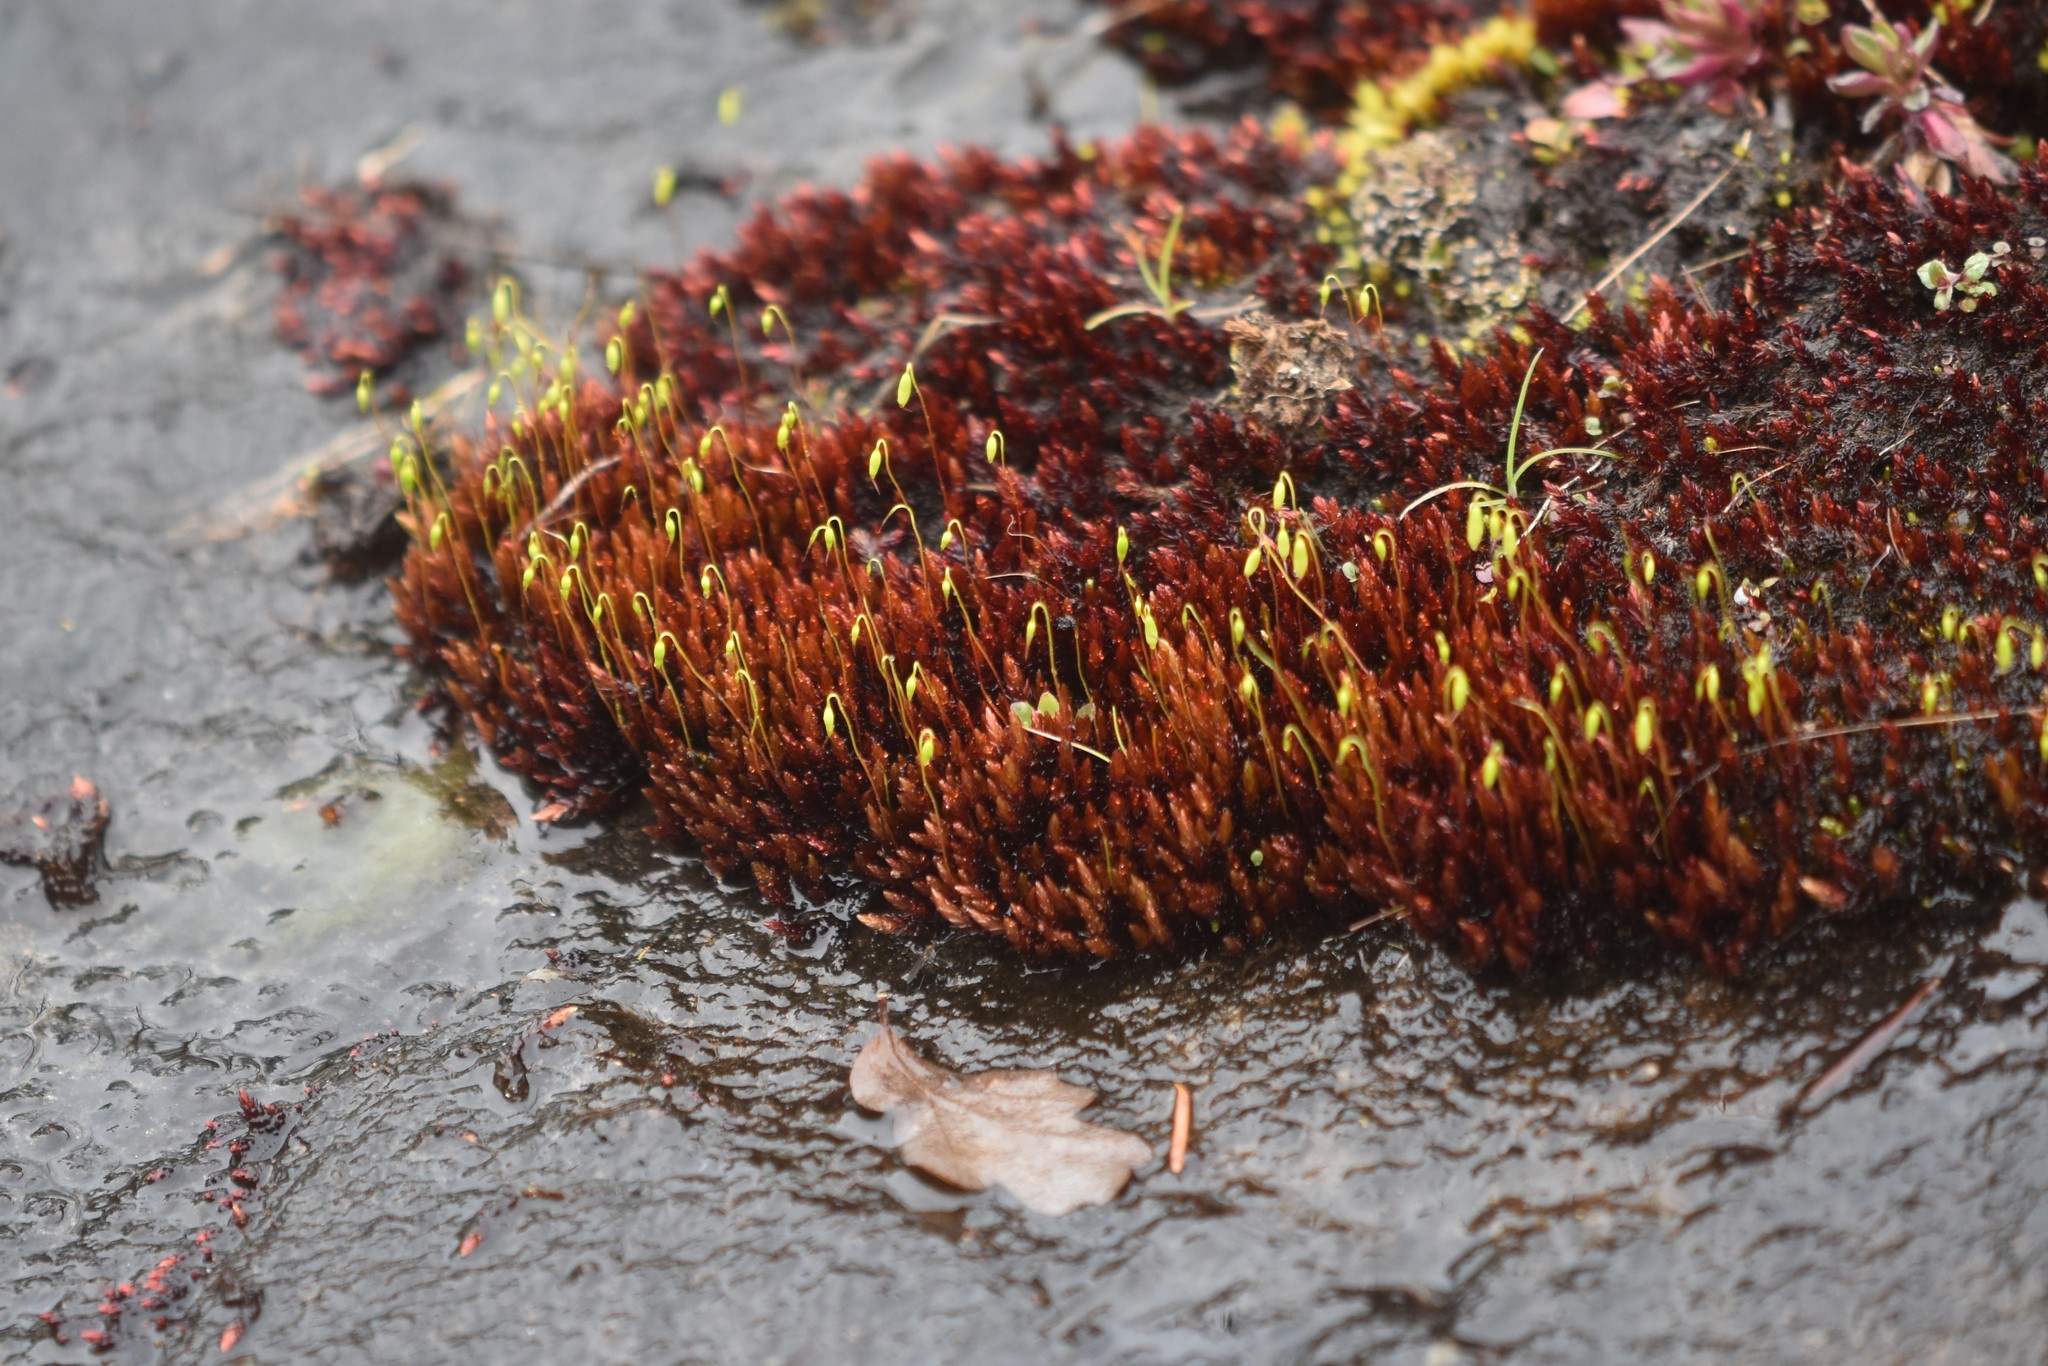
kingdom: Plantae
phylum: Bryophyta
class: Bryopsida
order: Bryales
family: Bryaceae
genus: Imbribryum
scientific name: Imbribryum miniatum
